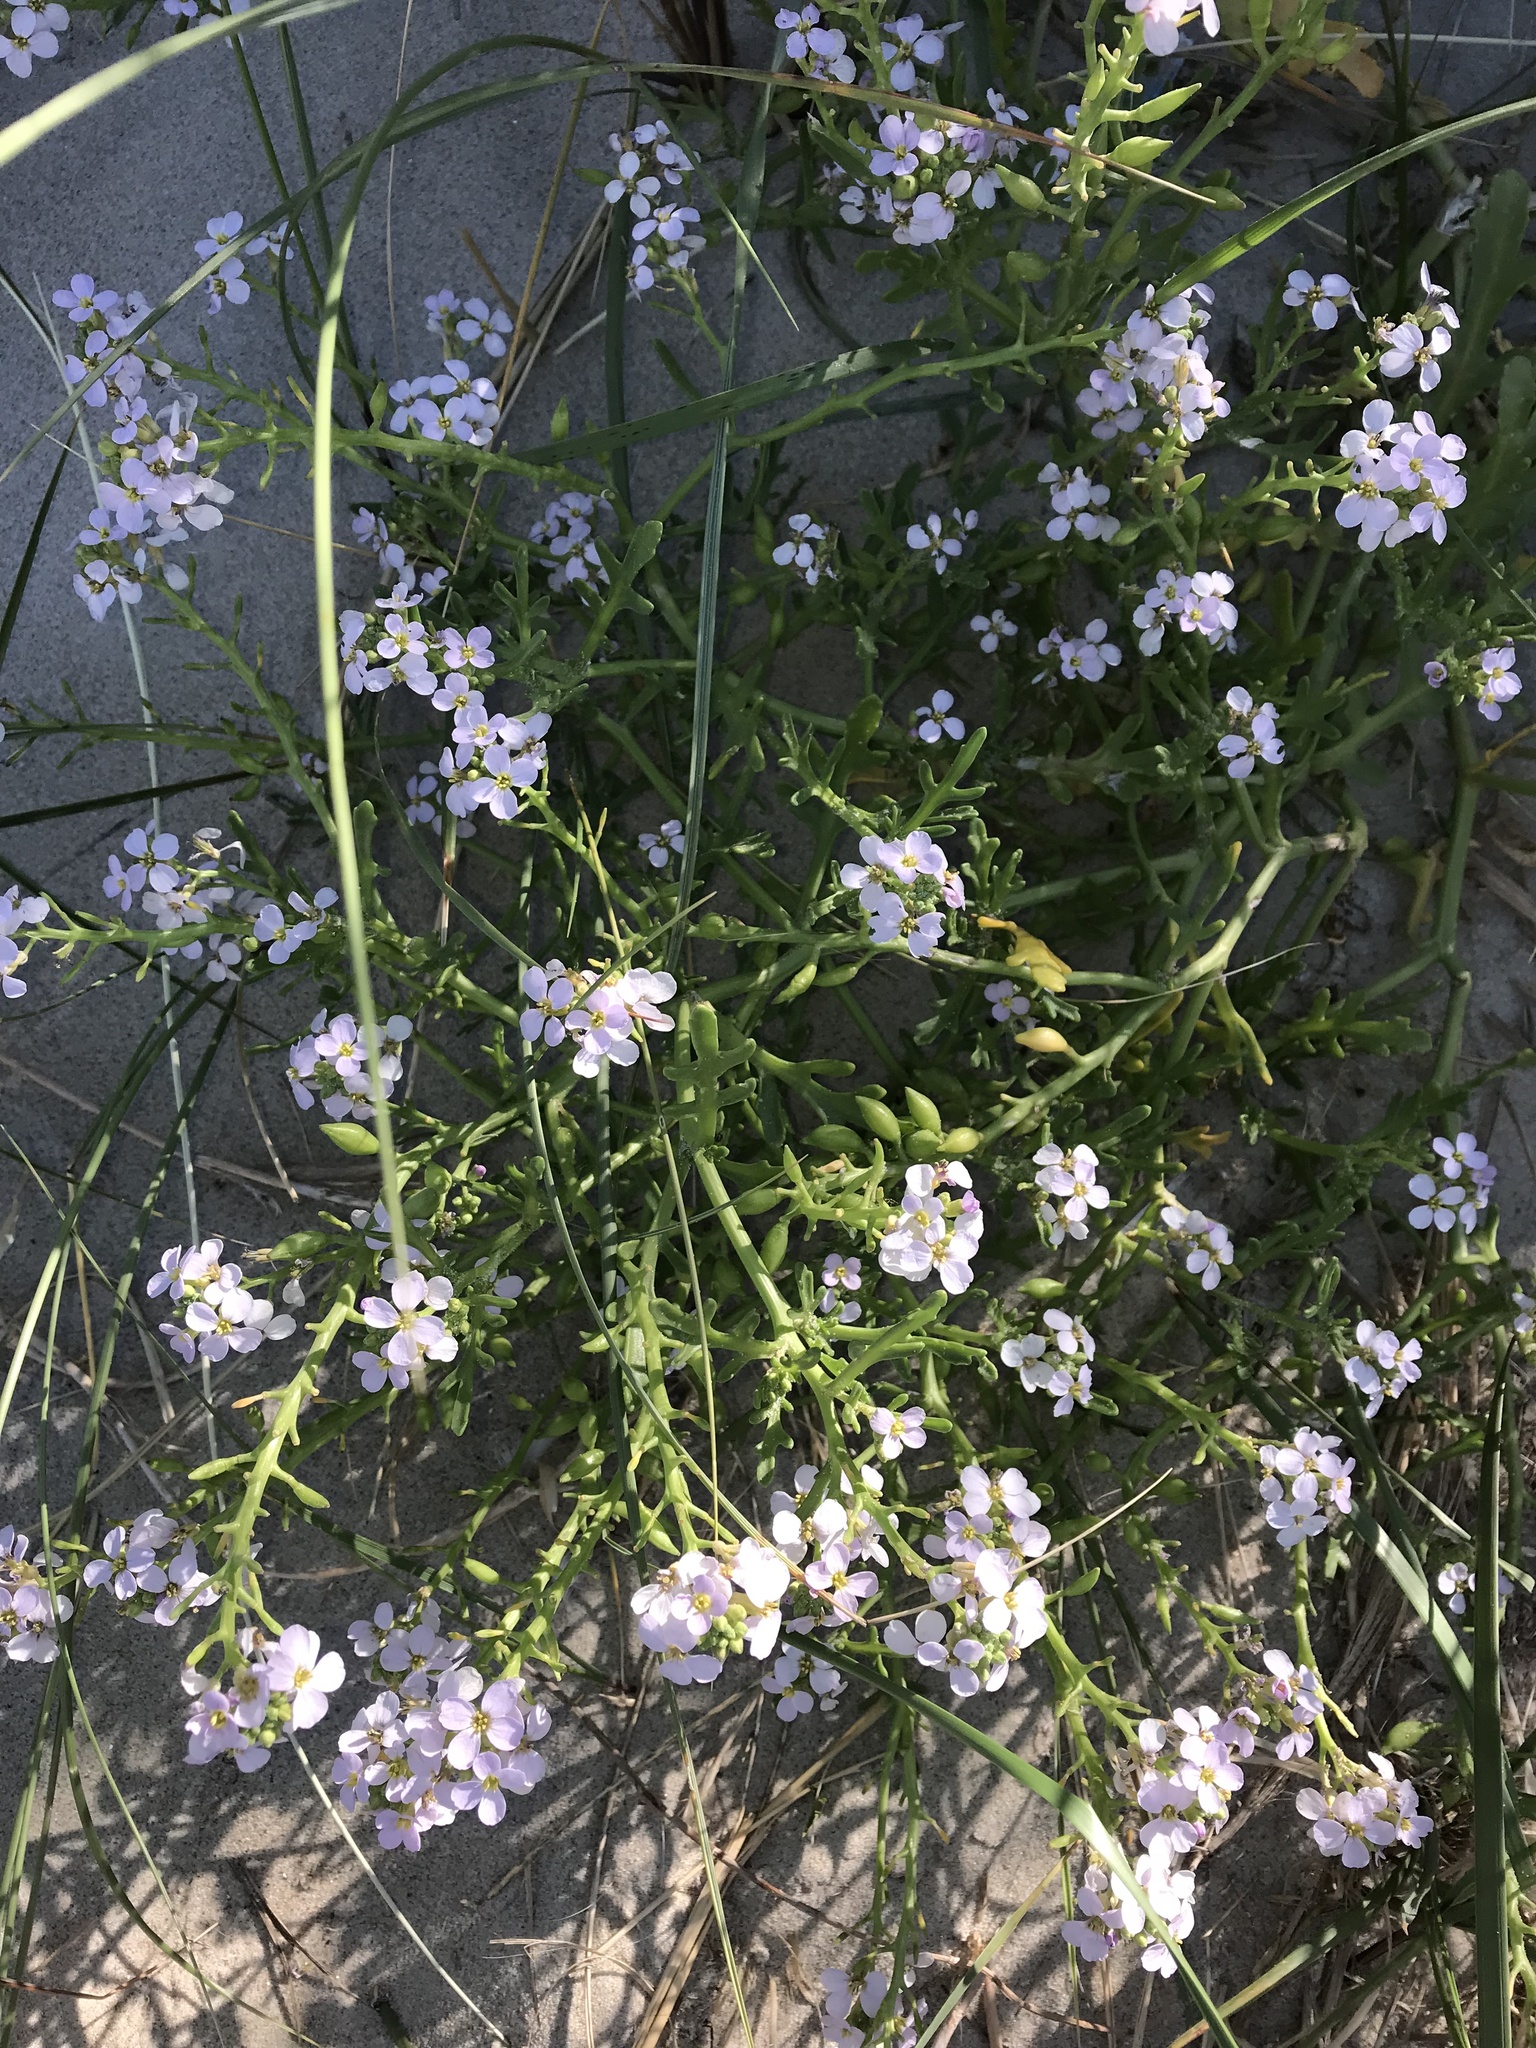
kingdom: Plantae
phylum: Tracheophyta
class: Magnoliopsida
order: Brassicales
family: Brassicaceae
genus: Cakile
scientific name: Cakile maritima
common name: Sea rocket
